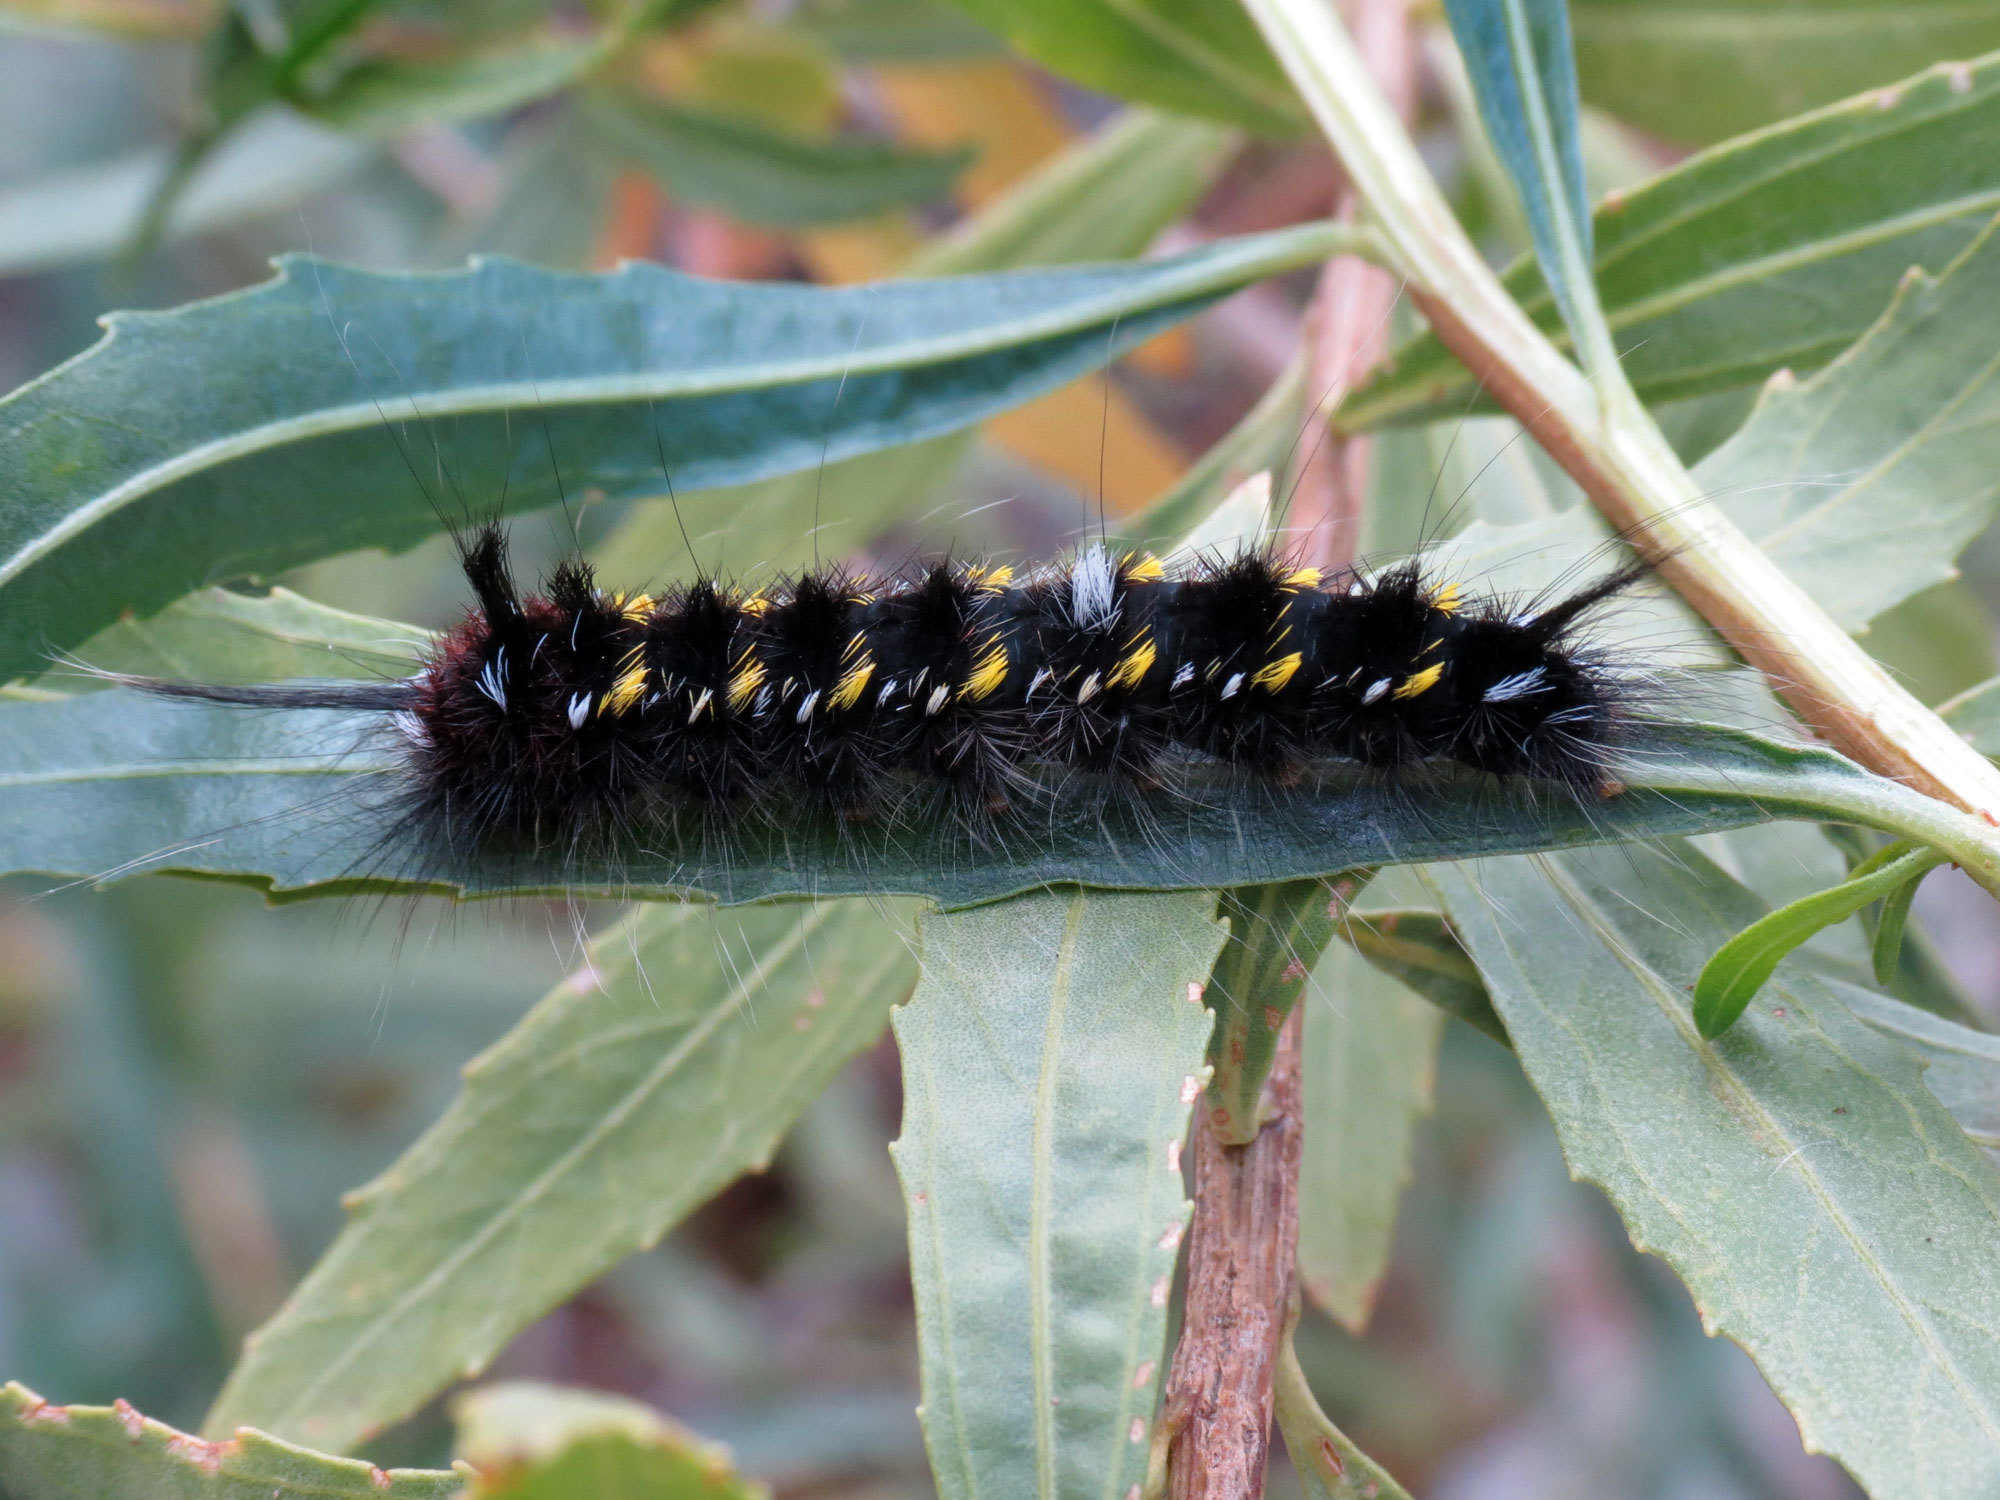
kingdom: Animalia
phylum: Arthropoda
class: Insecta
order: Lepidoptera
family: Apatelodidae
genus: Hygrochroa
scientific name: Hygrochroa Apatelodes pudefacta
